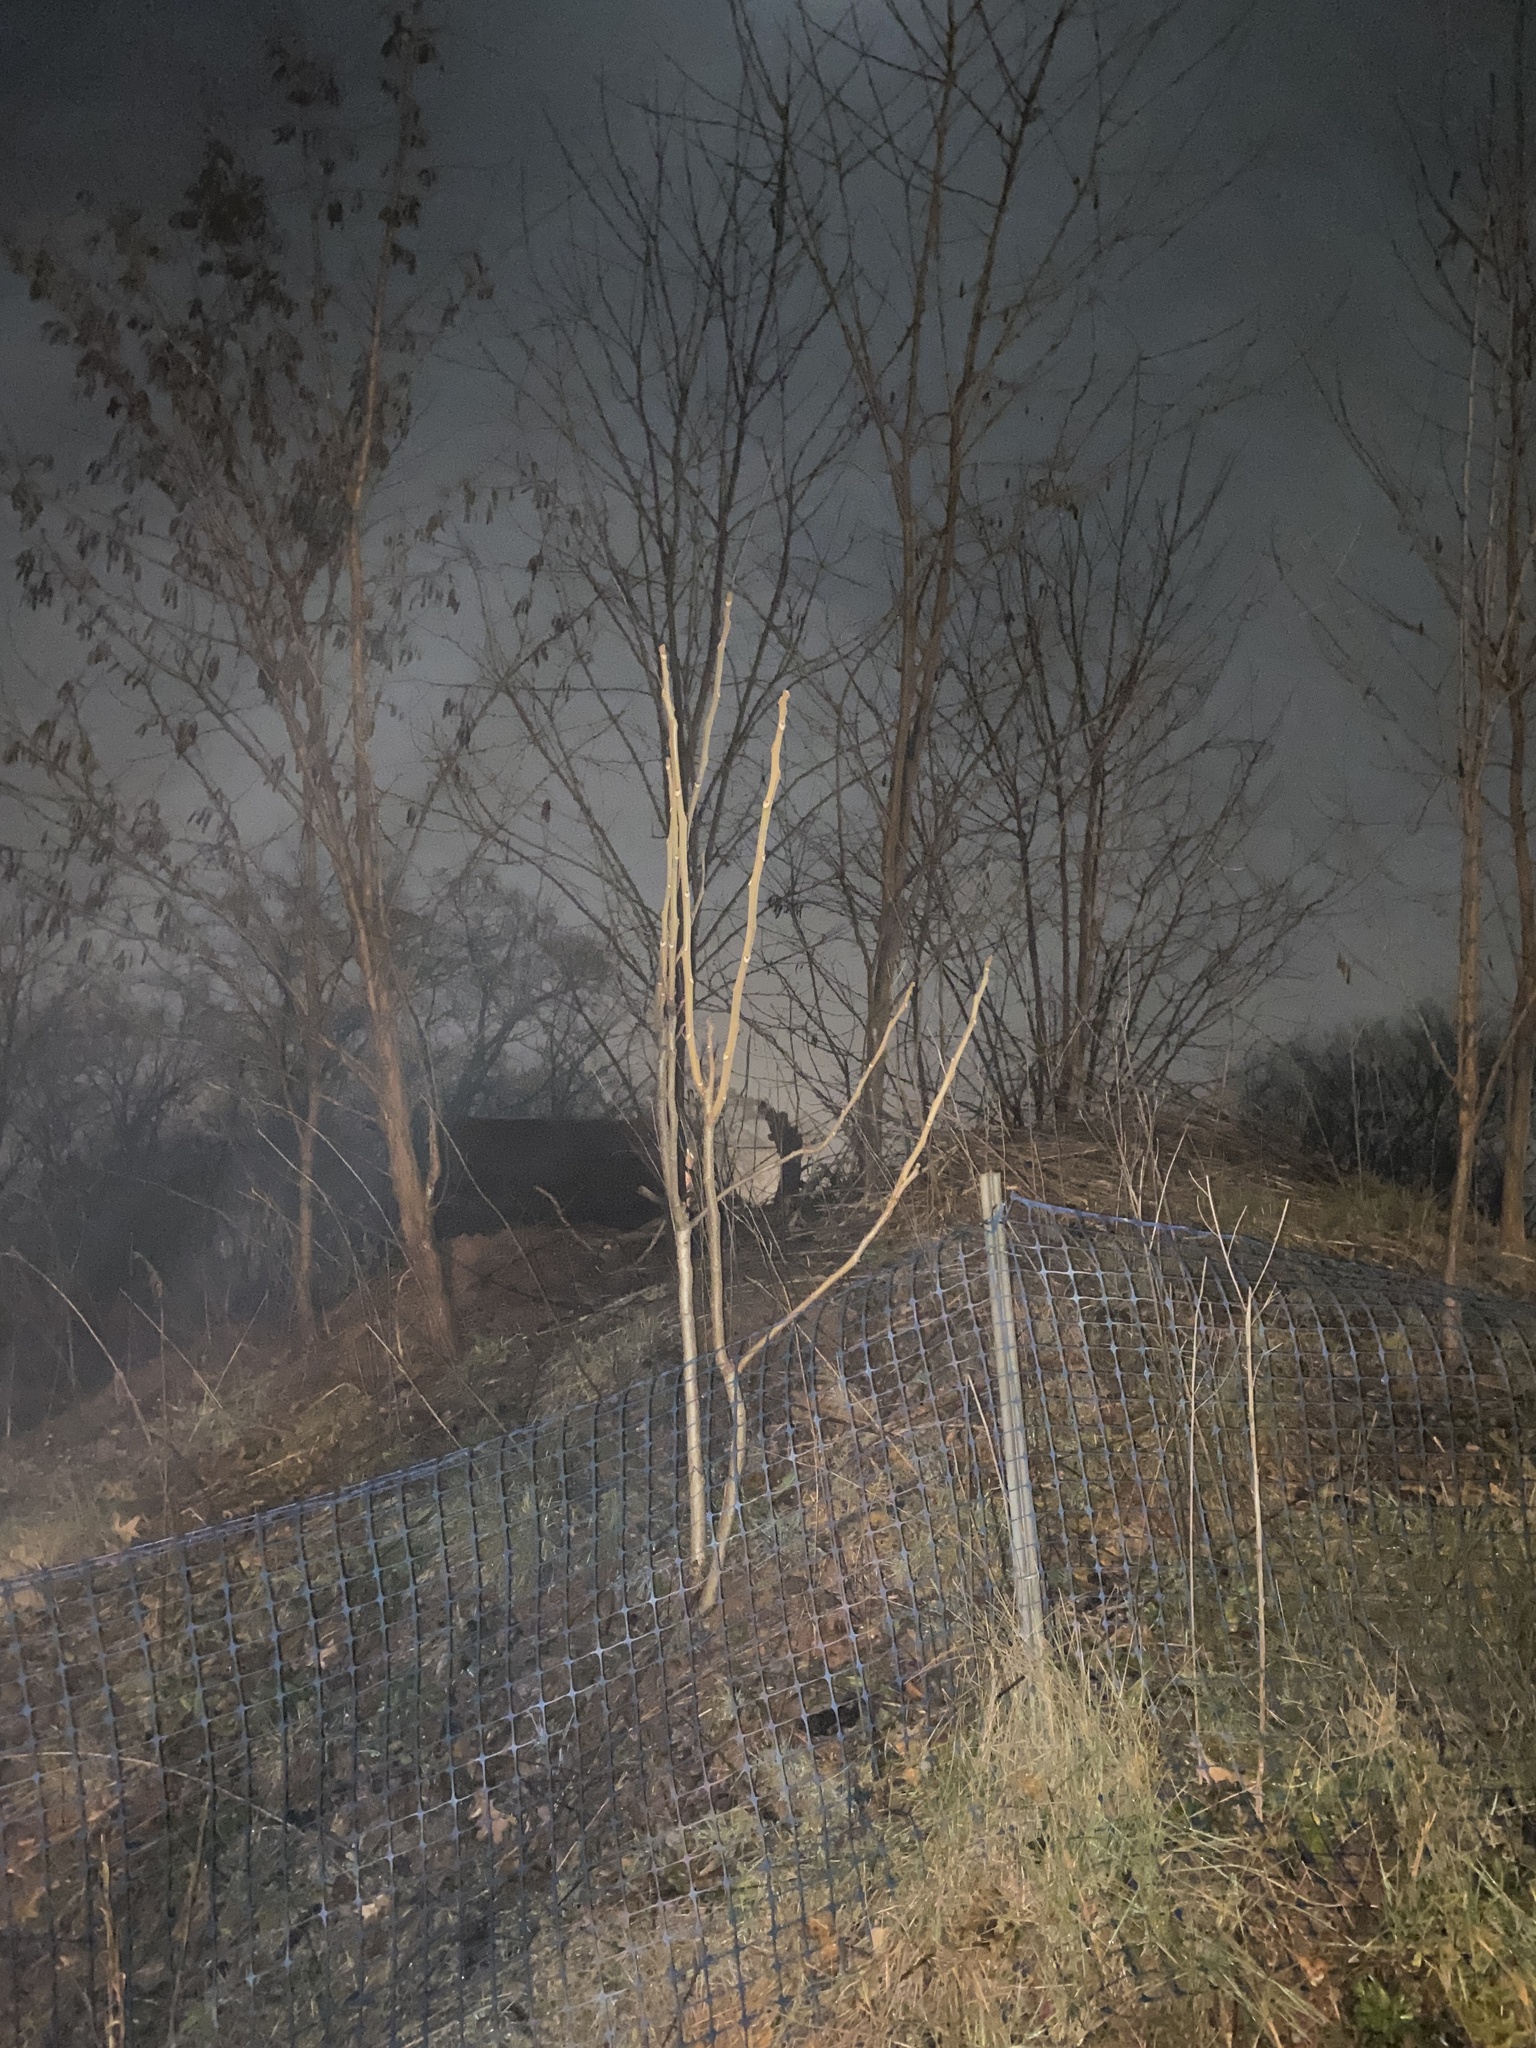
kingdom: Plantae
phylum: Tracheophyta
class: Magnoliopsida
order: Sapindales
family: Simaroubaceae
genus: Ailanthus
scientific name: Ailanthus altissima
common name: Tree-of-heaven
